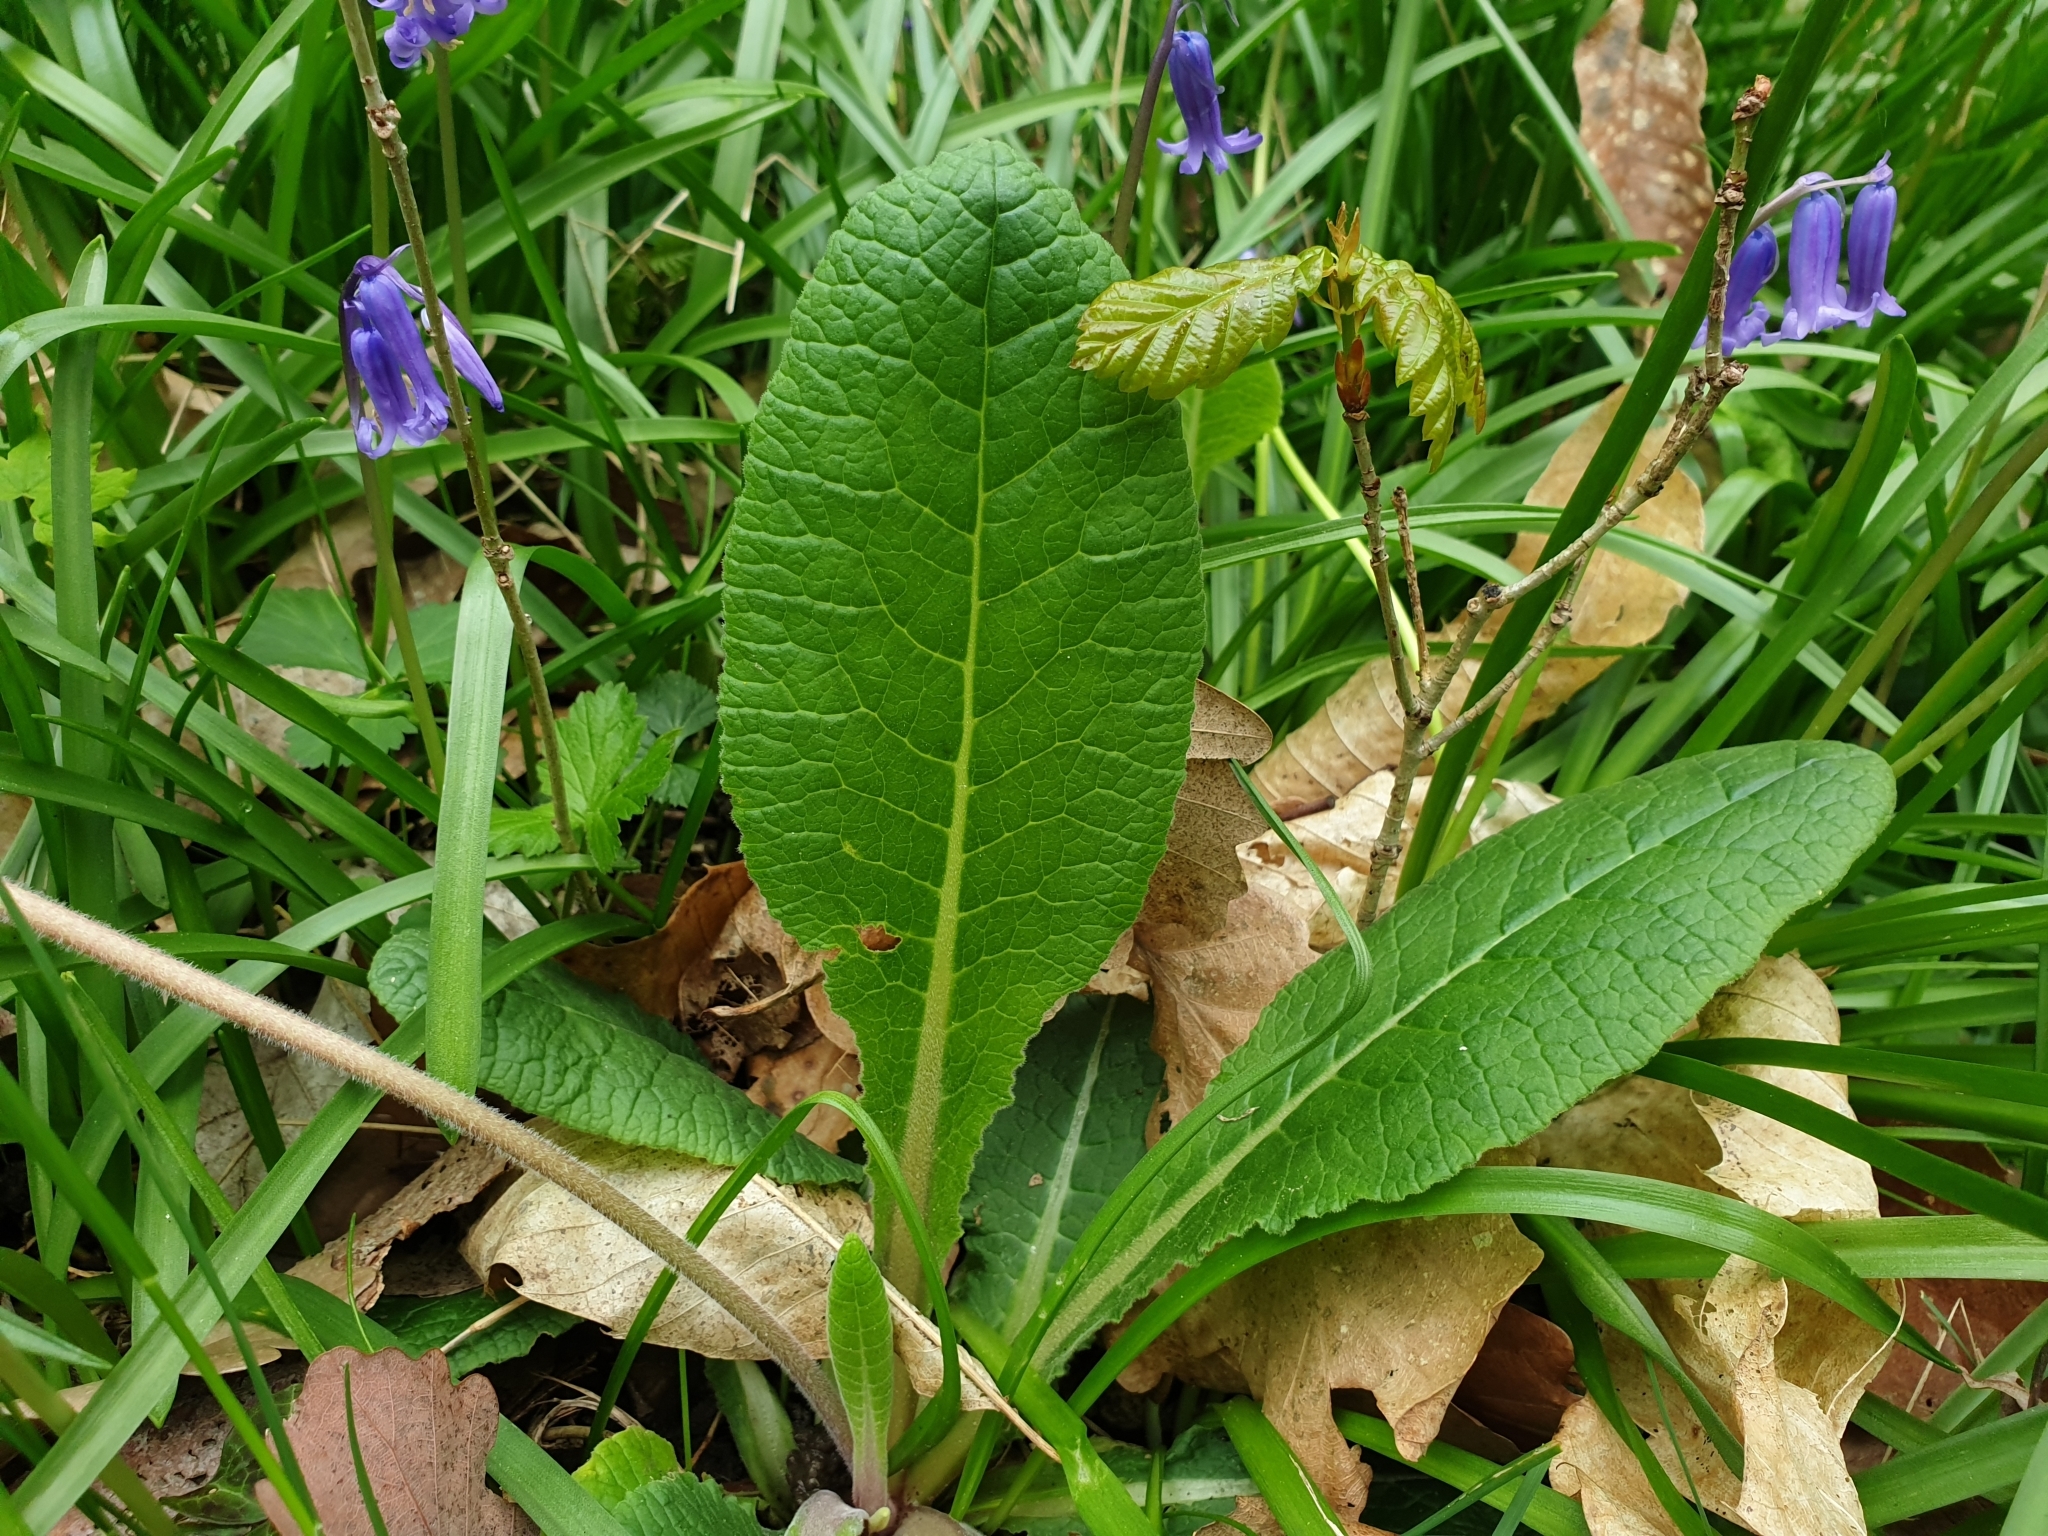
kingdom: Plantae
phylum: Tracheophyta
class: Magnoliopsida
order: Ericales
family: Primulaceae
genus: Primula
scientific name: Primula polyantha
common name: False oxlip
